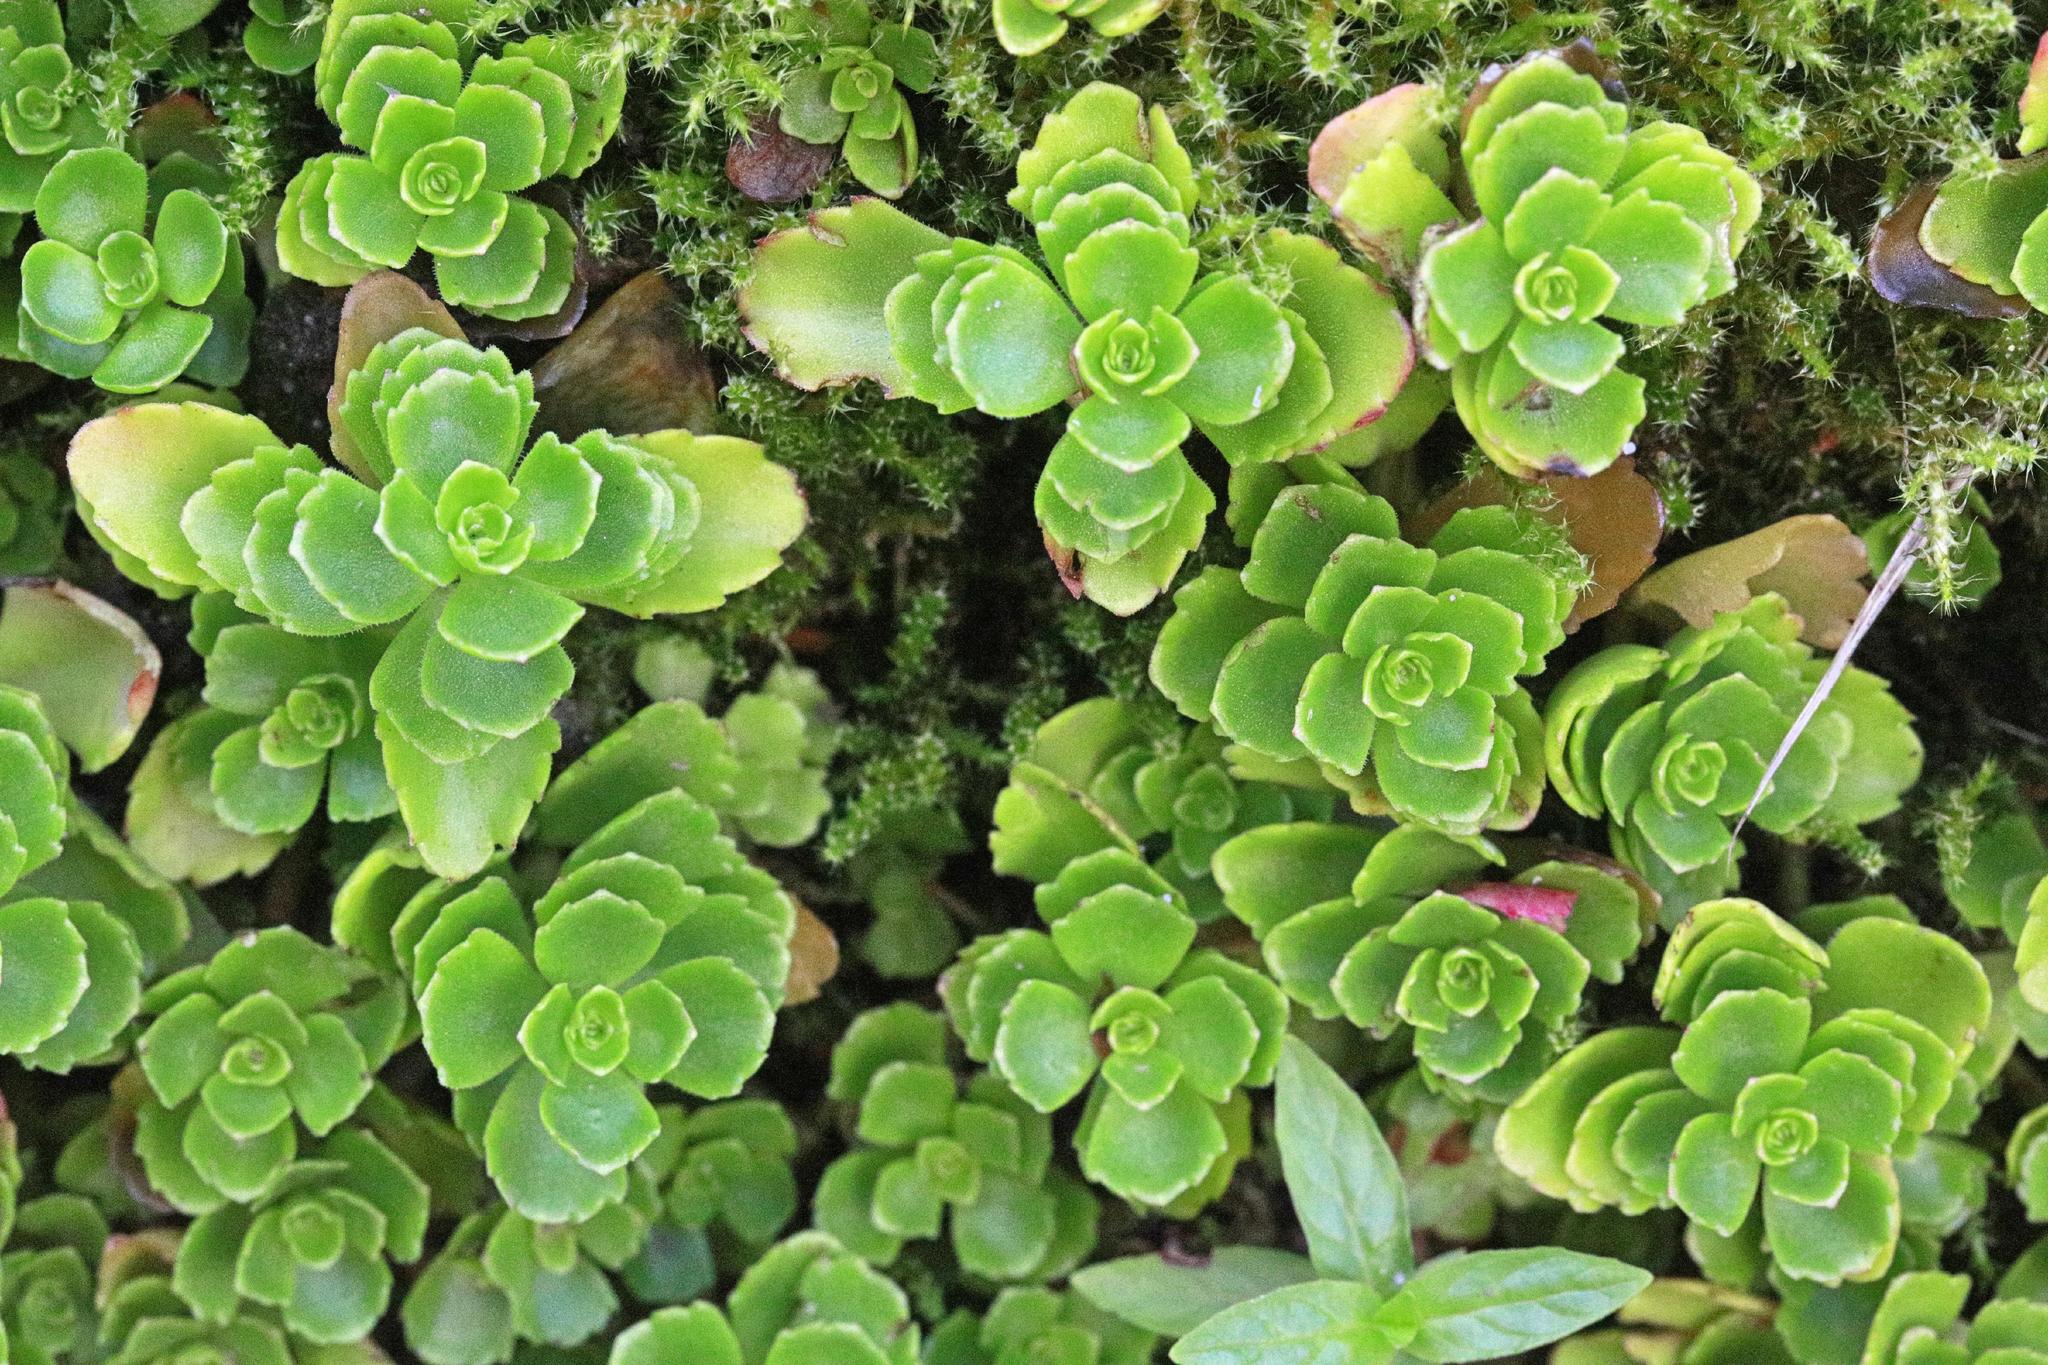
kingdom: Plantae
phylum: Tracheophyta
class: Magnoliopsida
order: Saxifragales
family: Crassulaceae
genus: Phedimus
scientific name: Phedimus spurius
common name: Caucasian stonecrop
